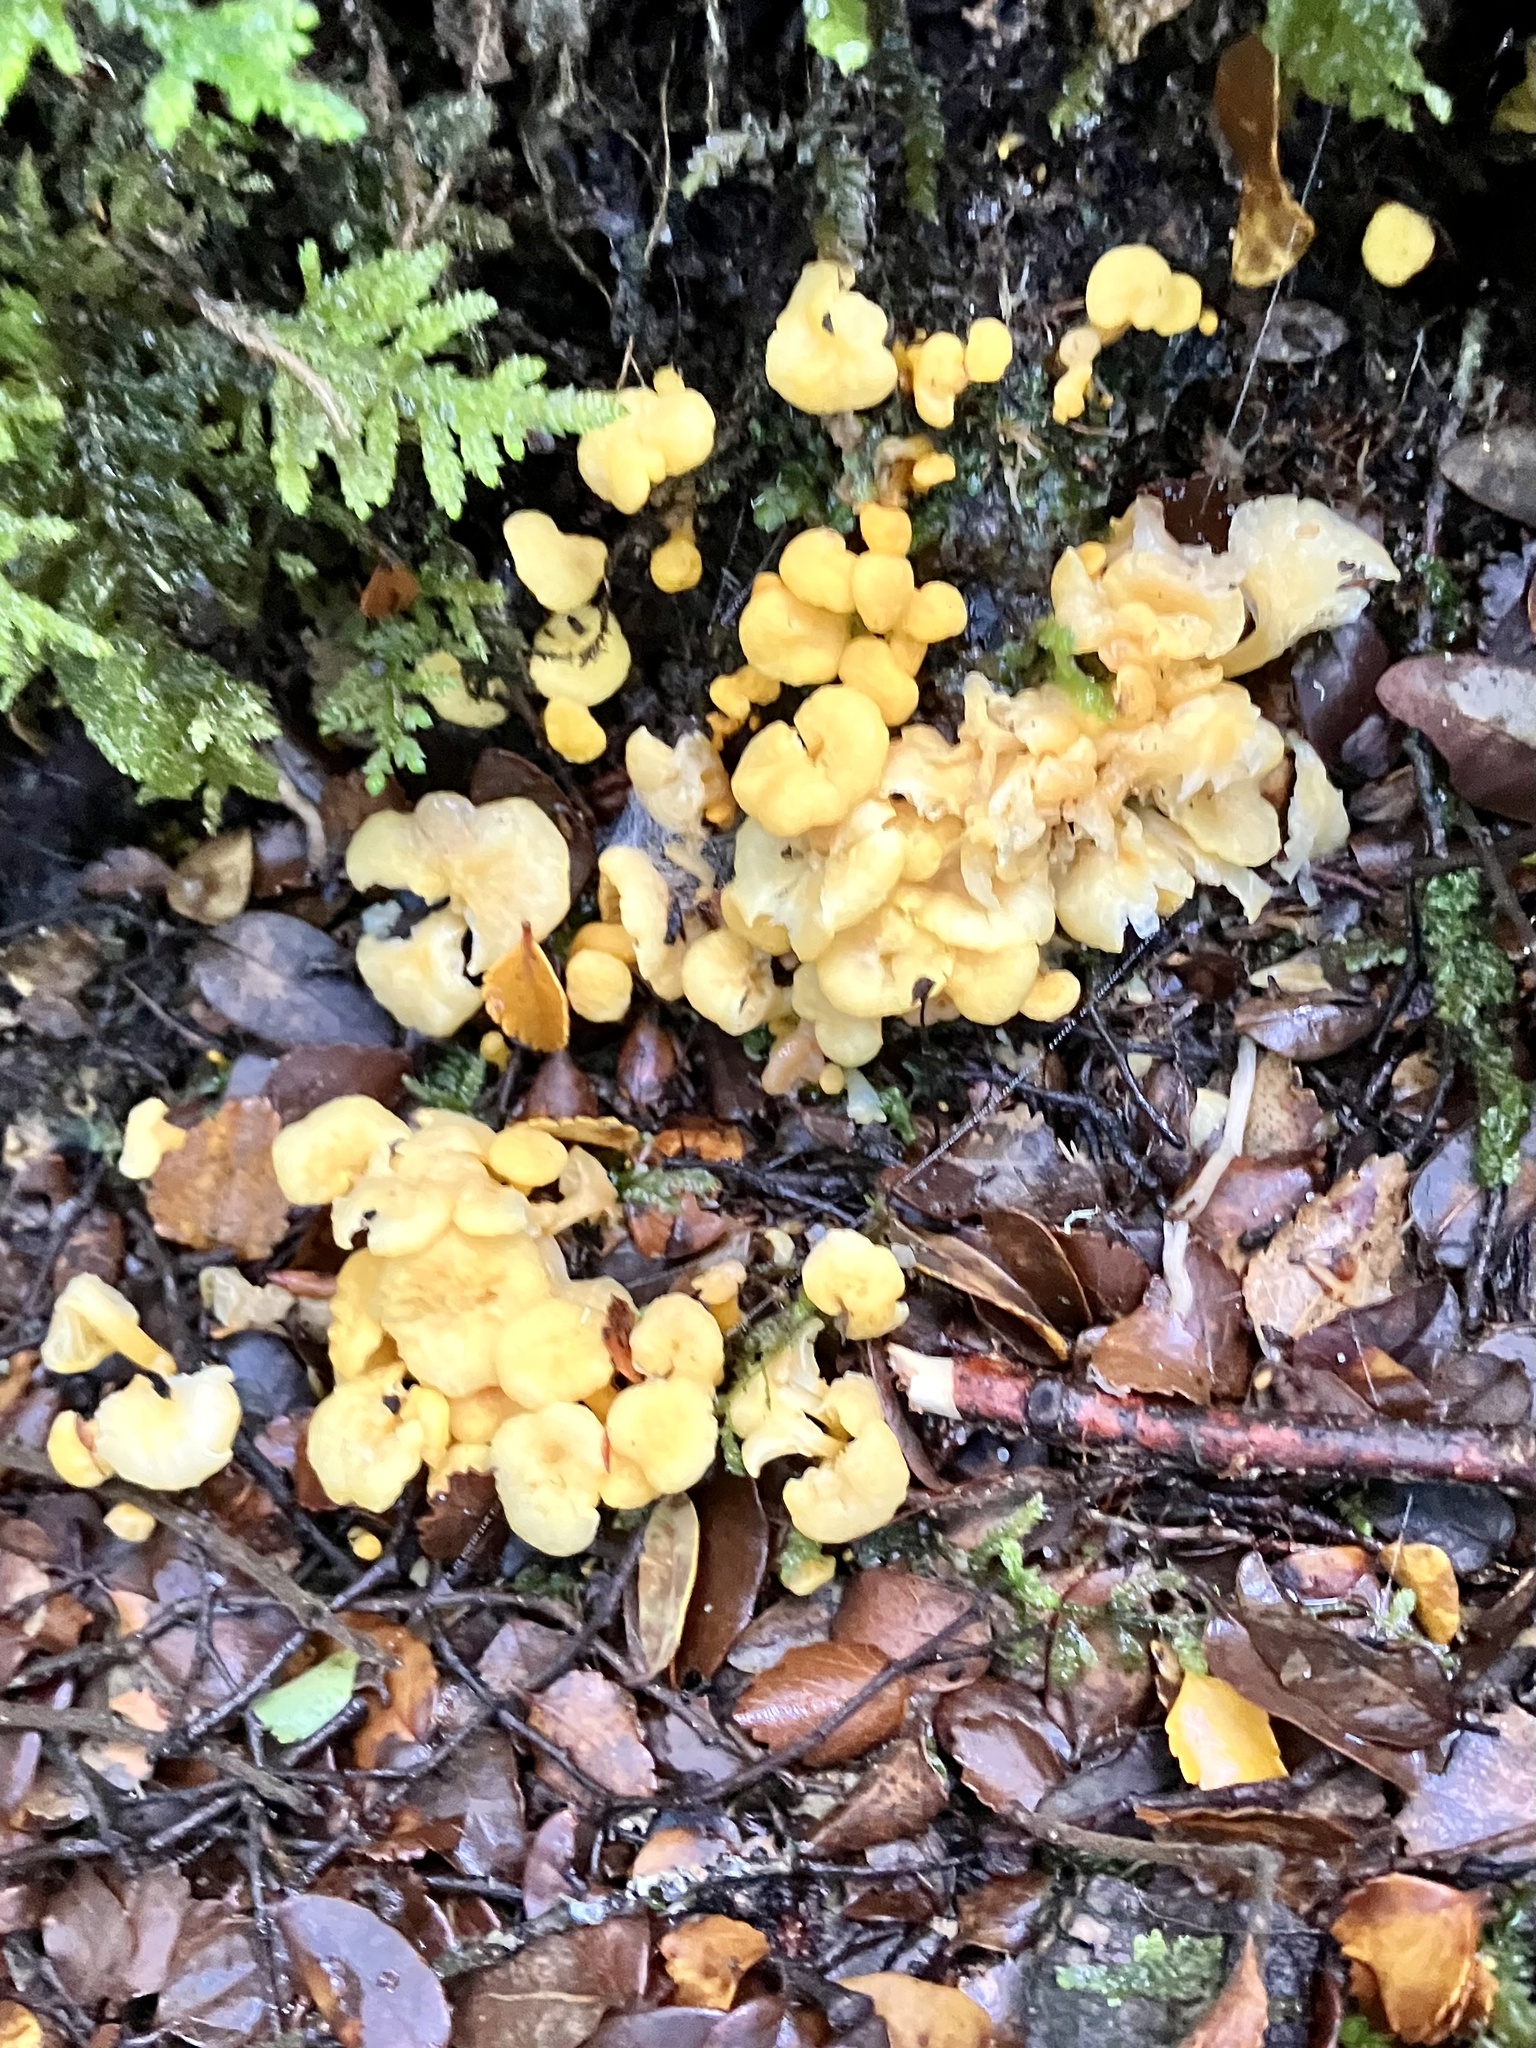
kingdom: Fungi
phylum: Basidiomycota
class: Agaricomycetes
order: Cantharellales
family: Hydnaceae
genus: Cantharellus
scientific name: Cantharellus wellingtonensis
